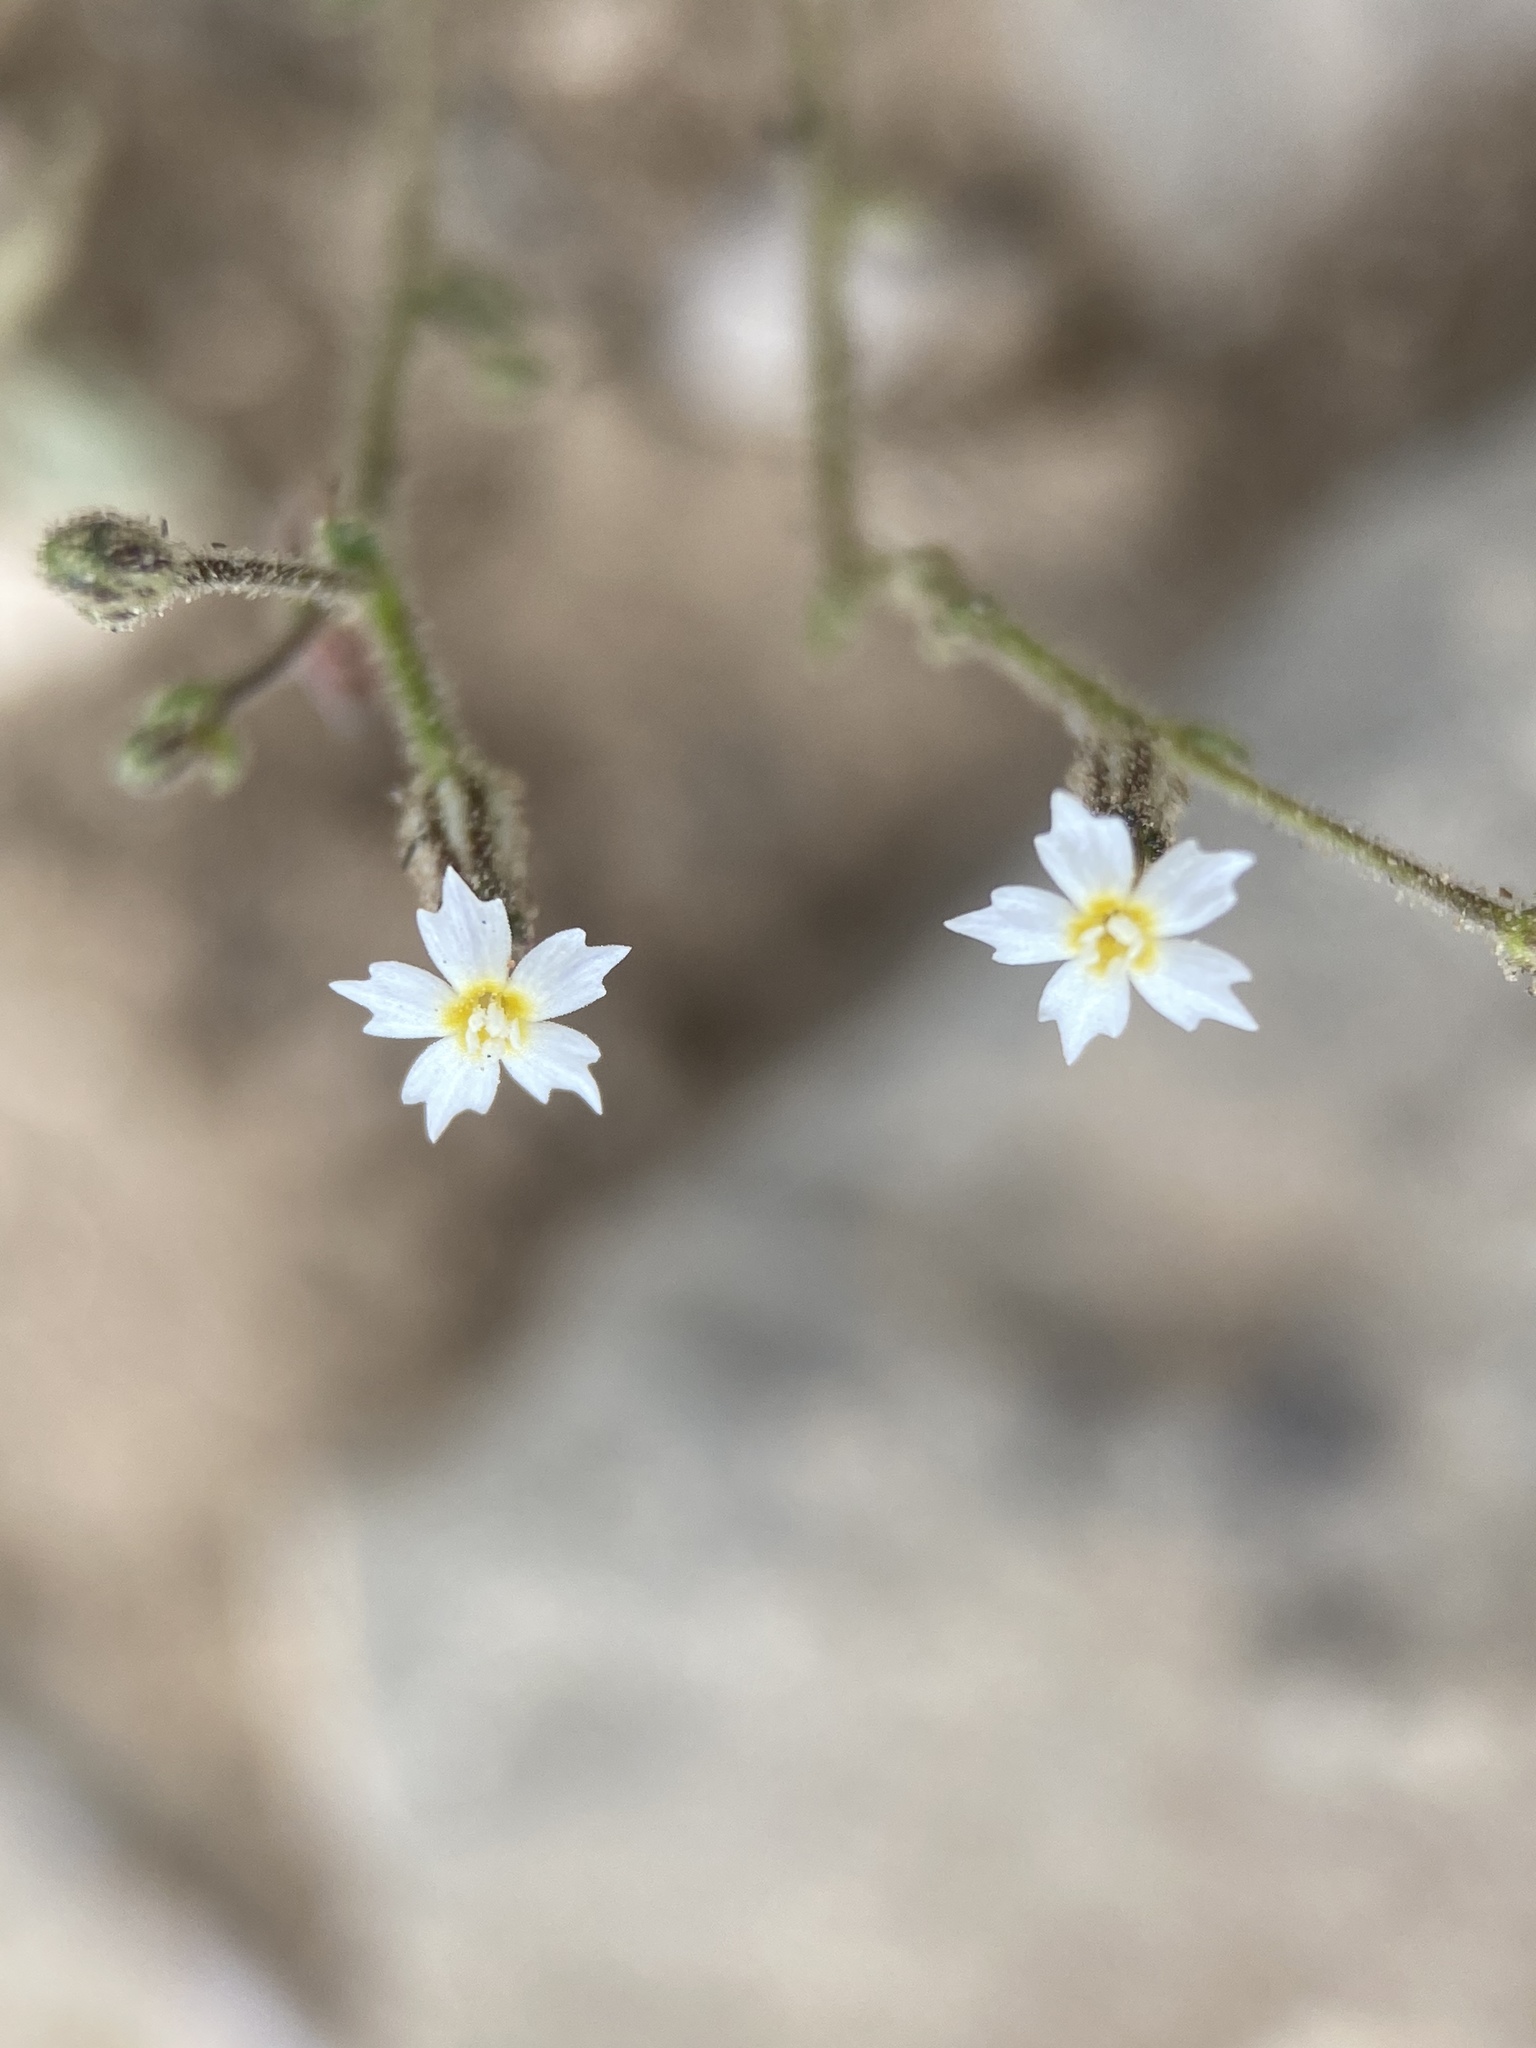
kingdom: Plantae
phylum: Tracheophyta
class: Magnoliopsida
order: Ericales
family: Polemoniaceae
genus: Aliciella
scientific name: Aliciella triodon
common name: Coyote gilia
